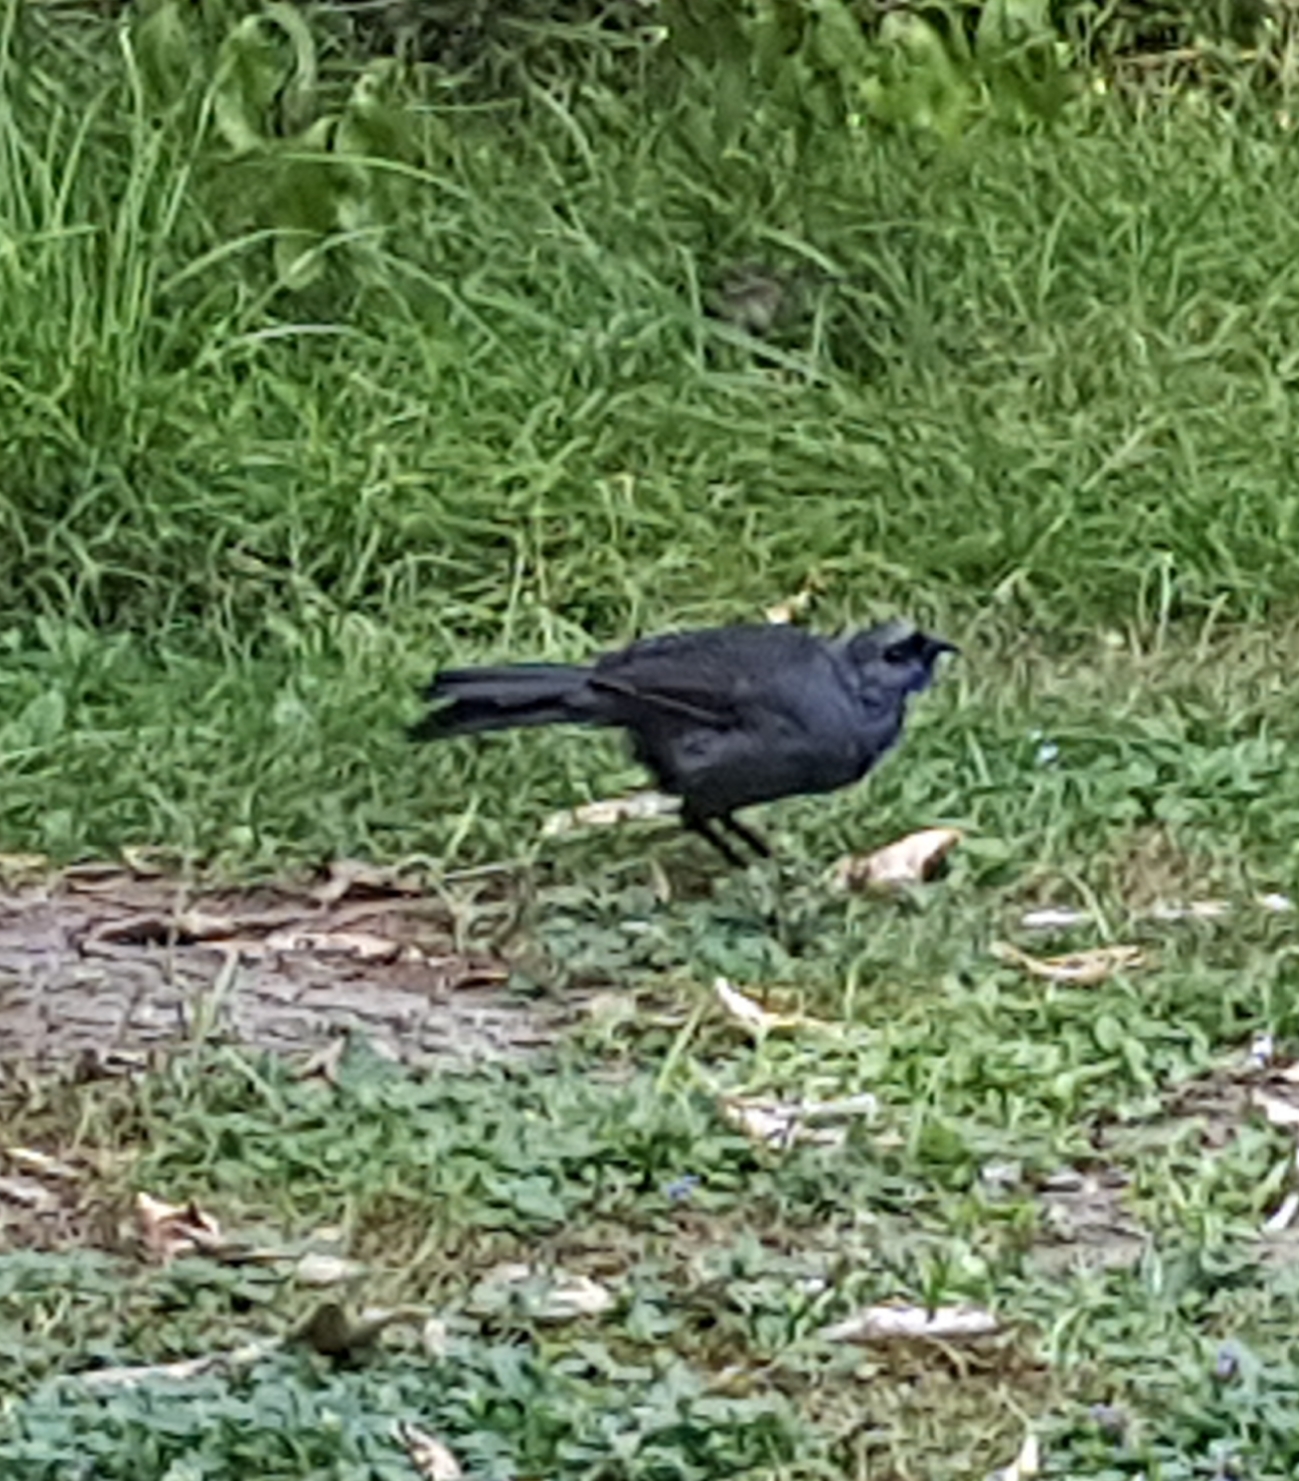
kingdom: Animalia
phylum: Chordata
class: Aves
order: Passeriformes
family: Callaeatidae
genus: Callaeas
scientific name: Callaeas cinereus
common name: South island kokako
